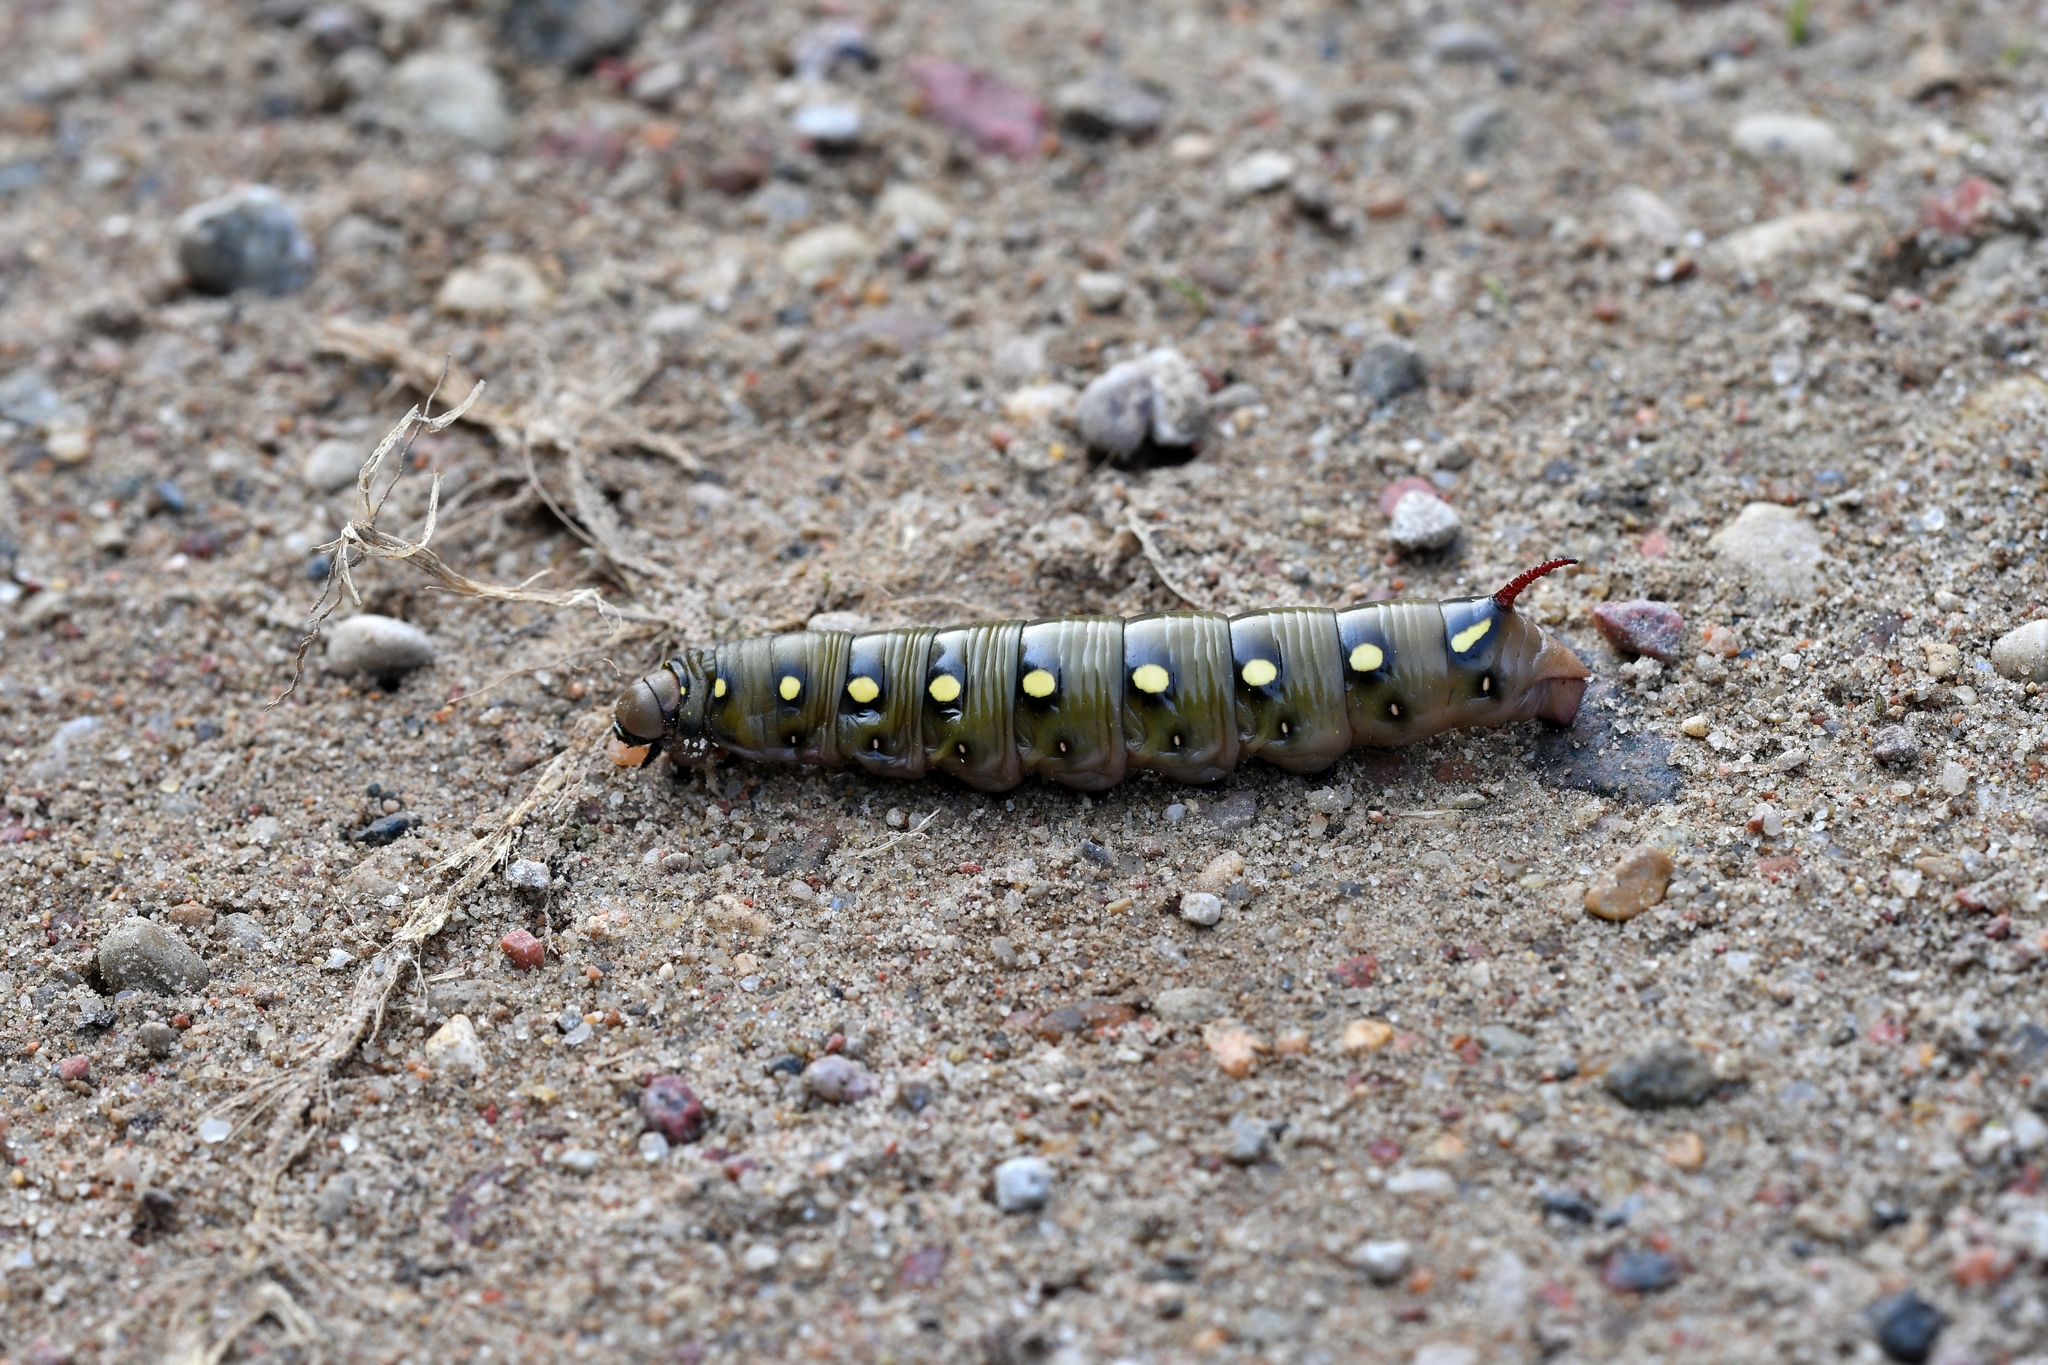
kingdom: Animalia
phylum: Arthropoda
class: Insecta
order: Lepidoptera
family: Sphingidae
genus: Hyles
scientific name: Hyles gallii
